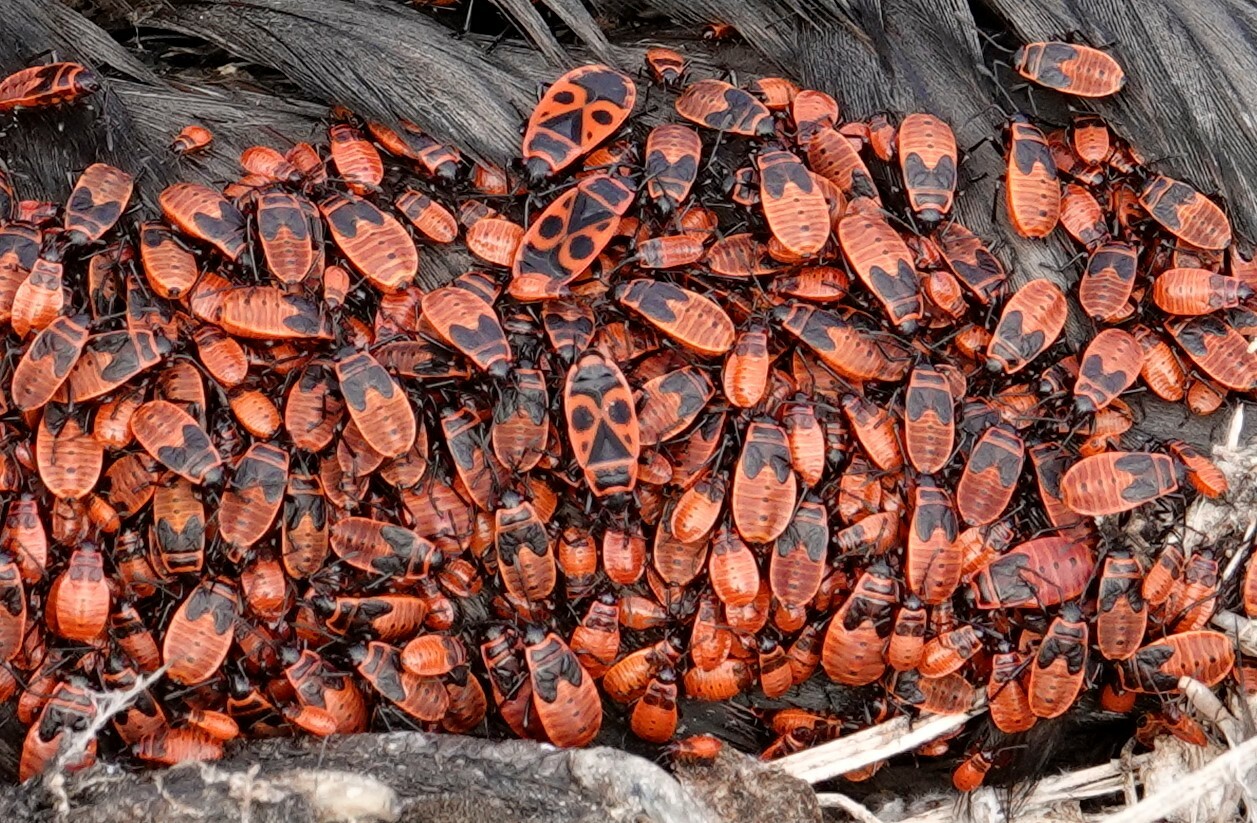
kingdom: Animalia
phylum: Arthropoda
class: Insecta
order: Hemiptera
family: Pyrrhocoridae
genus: Pyrrhocoris
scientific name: Pyrrhocoris apterus
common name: Firebug
